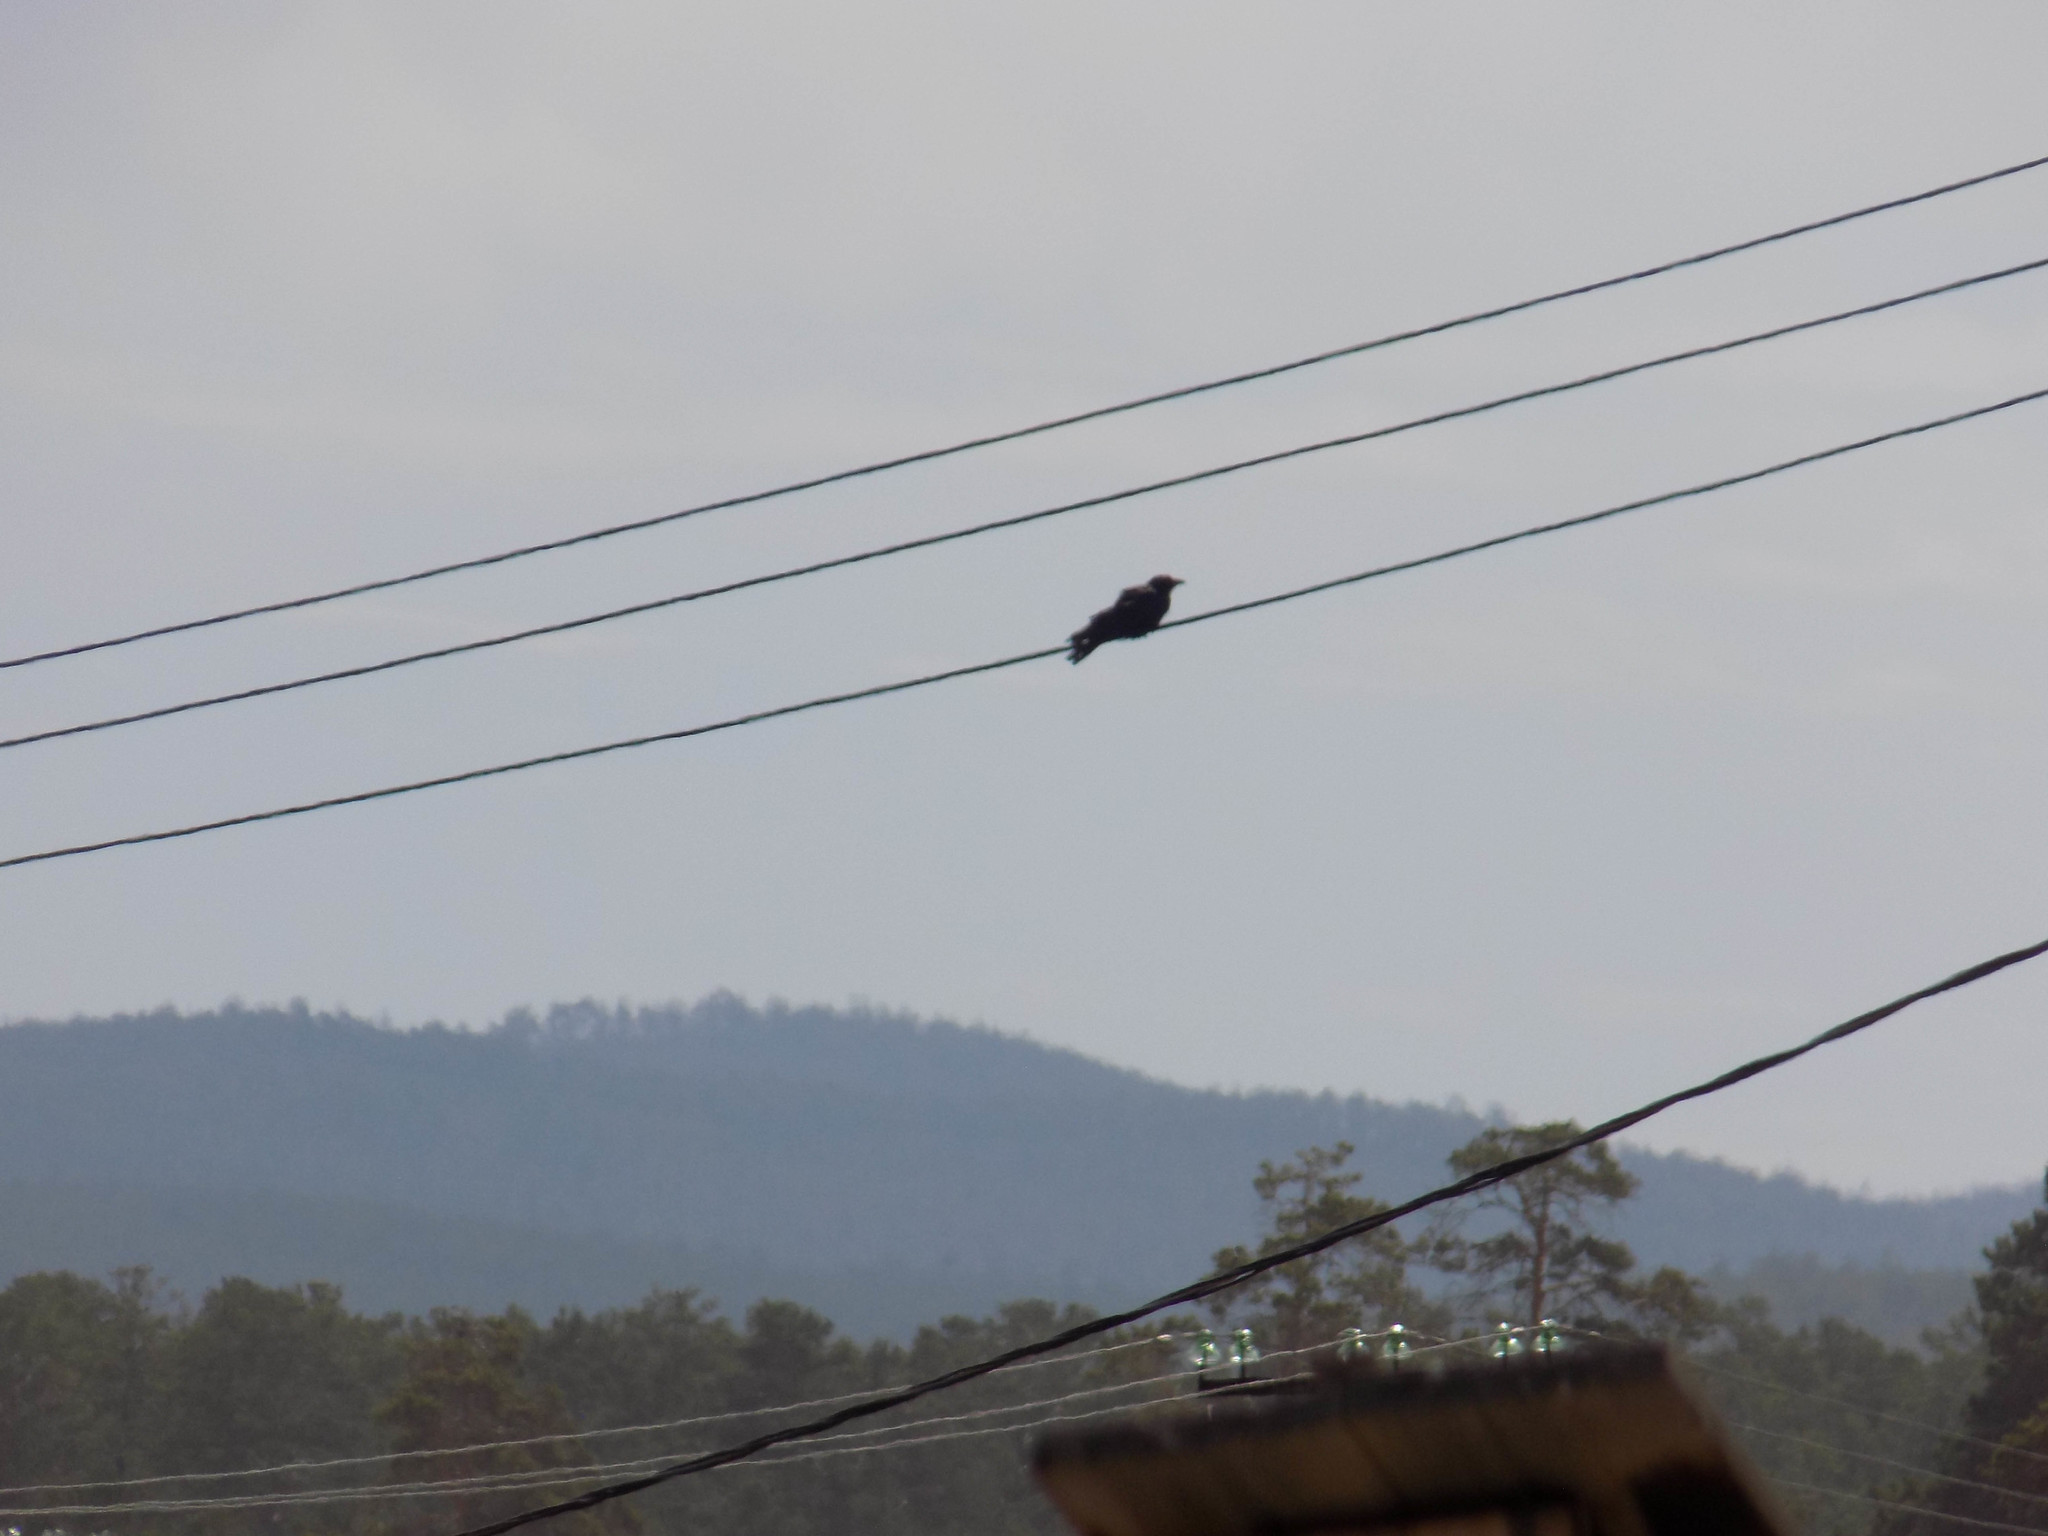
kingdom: Animalia
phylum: Chordata
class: Aves
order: Passeriformes
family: Corvidae
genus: Corvus
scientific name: Corvus corone
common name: Carrion crow
